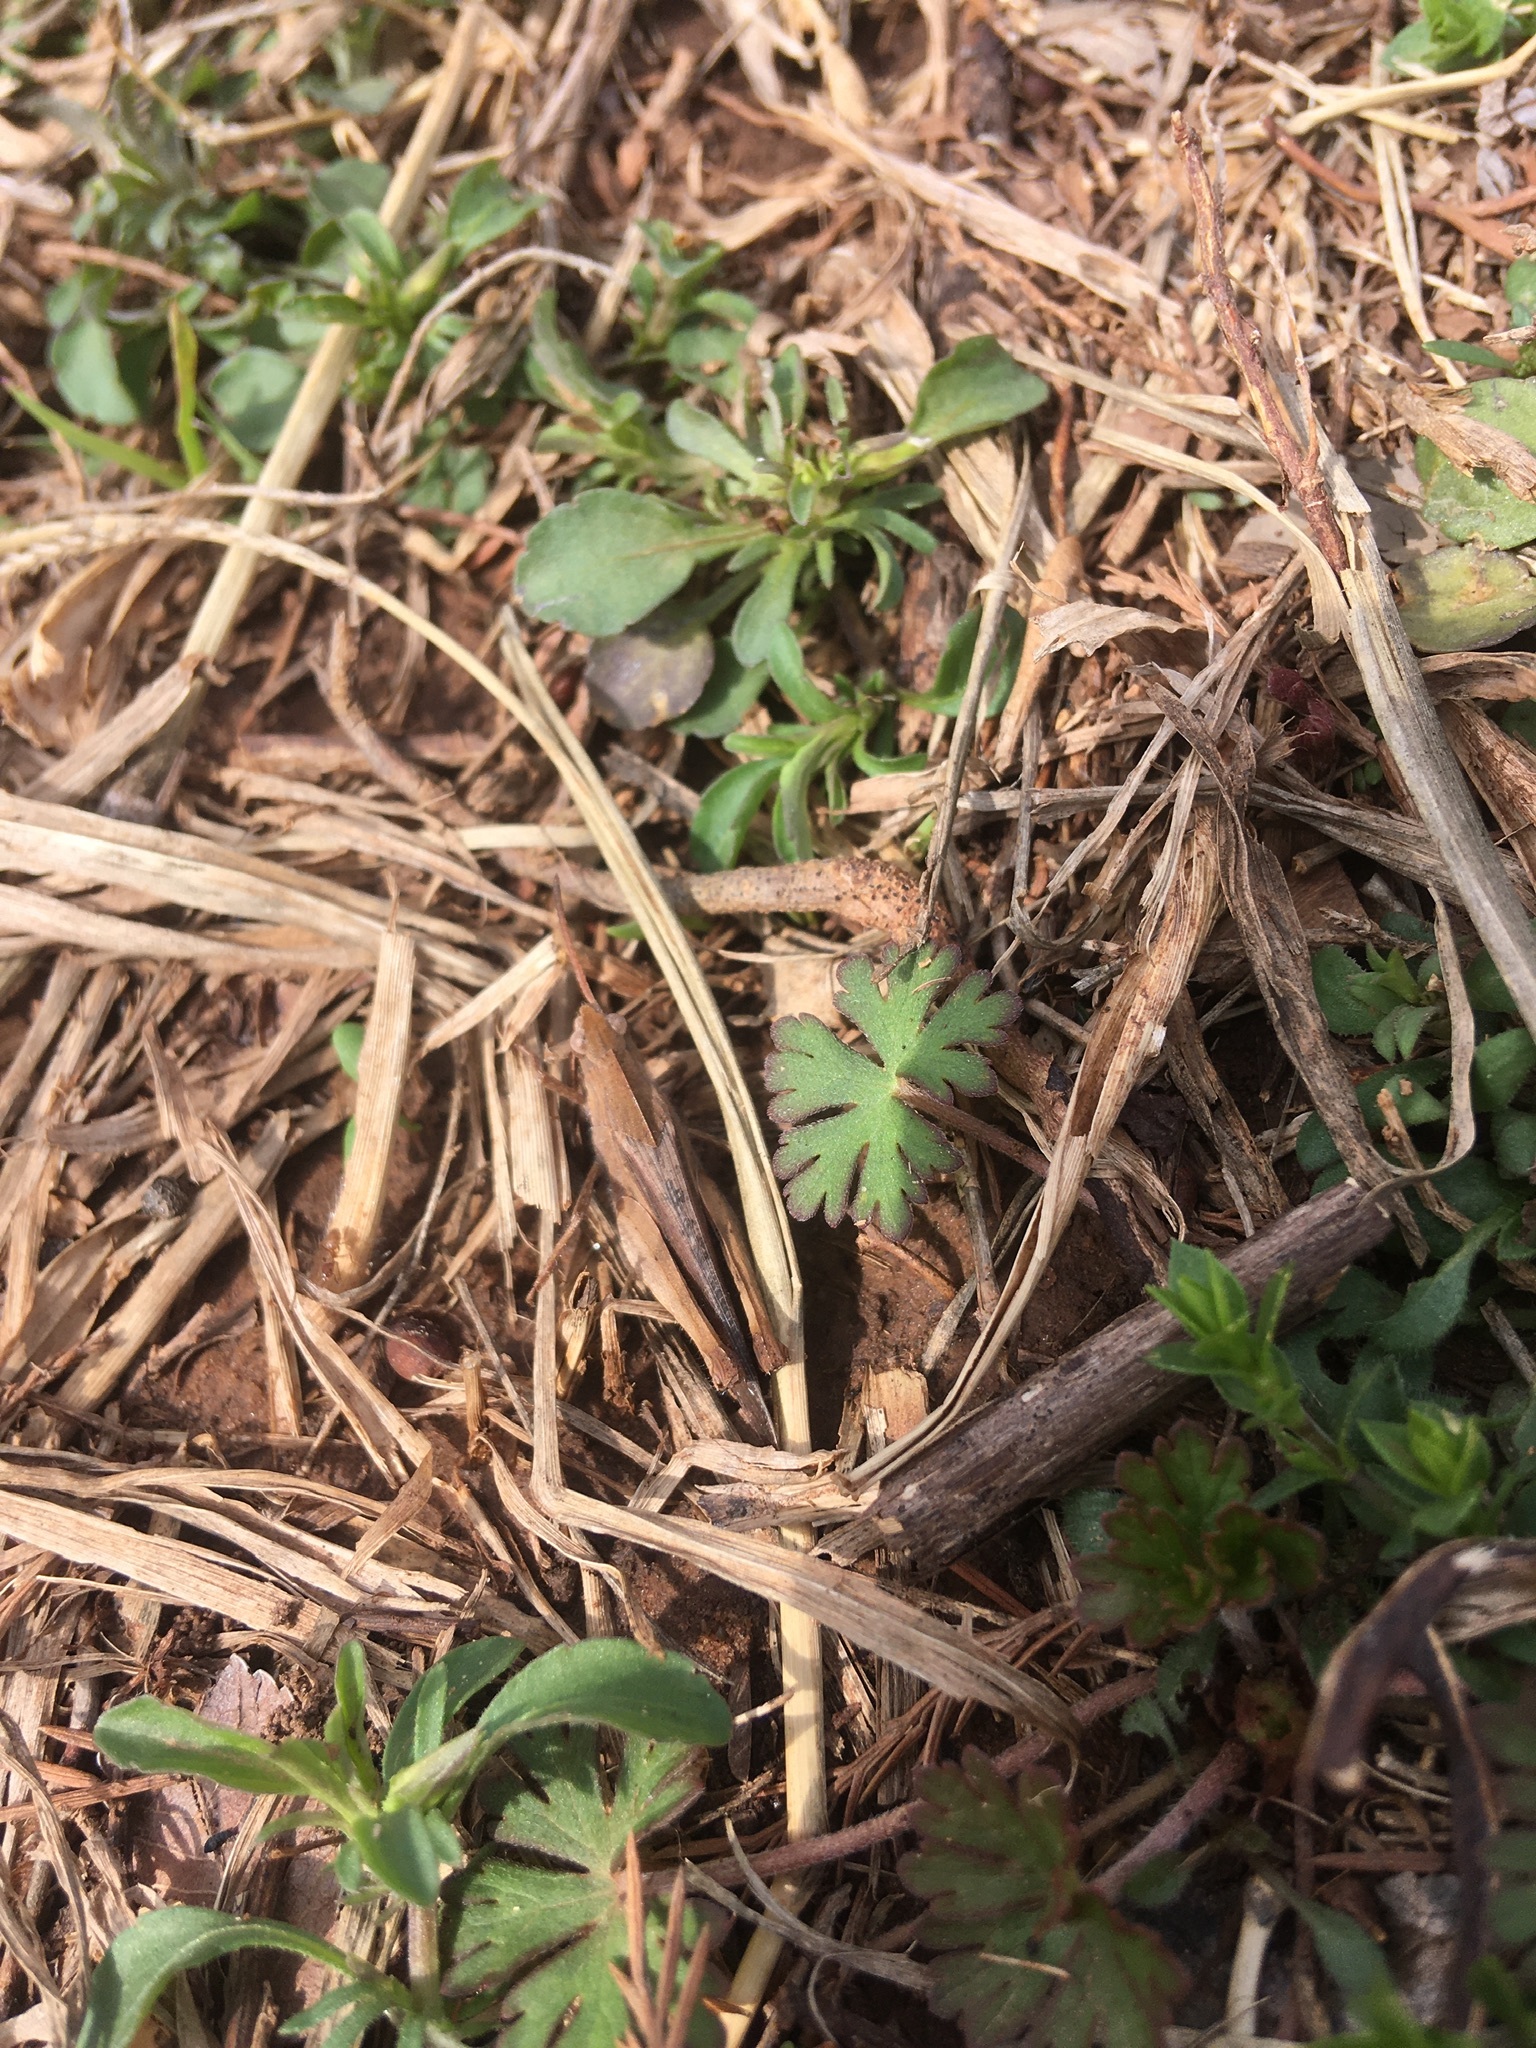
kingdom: Animalia
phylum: Arthropoda
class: Insecta
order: Orthoptera
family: Acrididae
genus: Chortophaga
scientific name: Chortophaga viridifasciata
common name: Green-striped grasshopper
